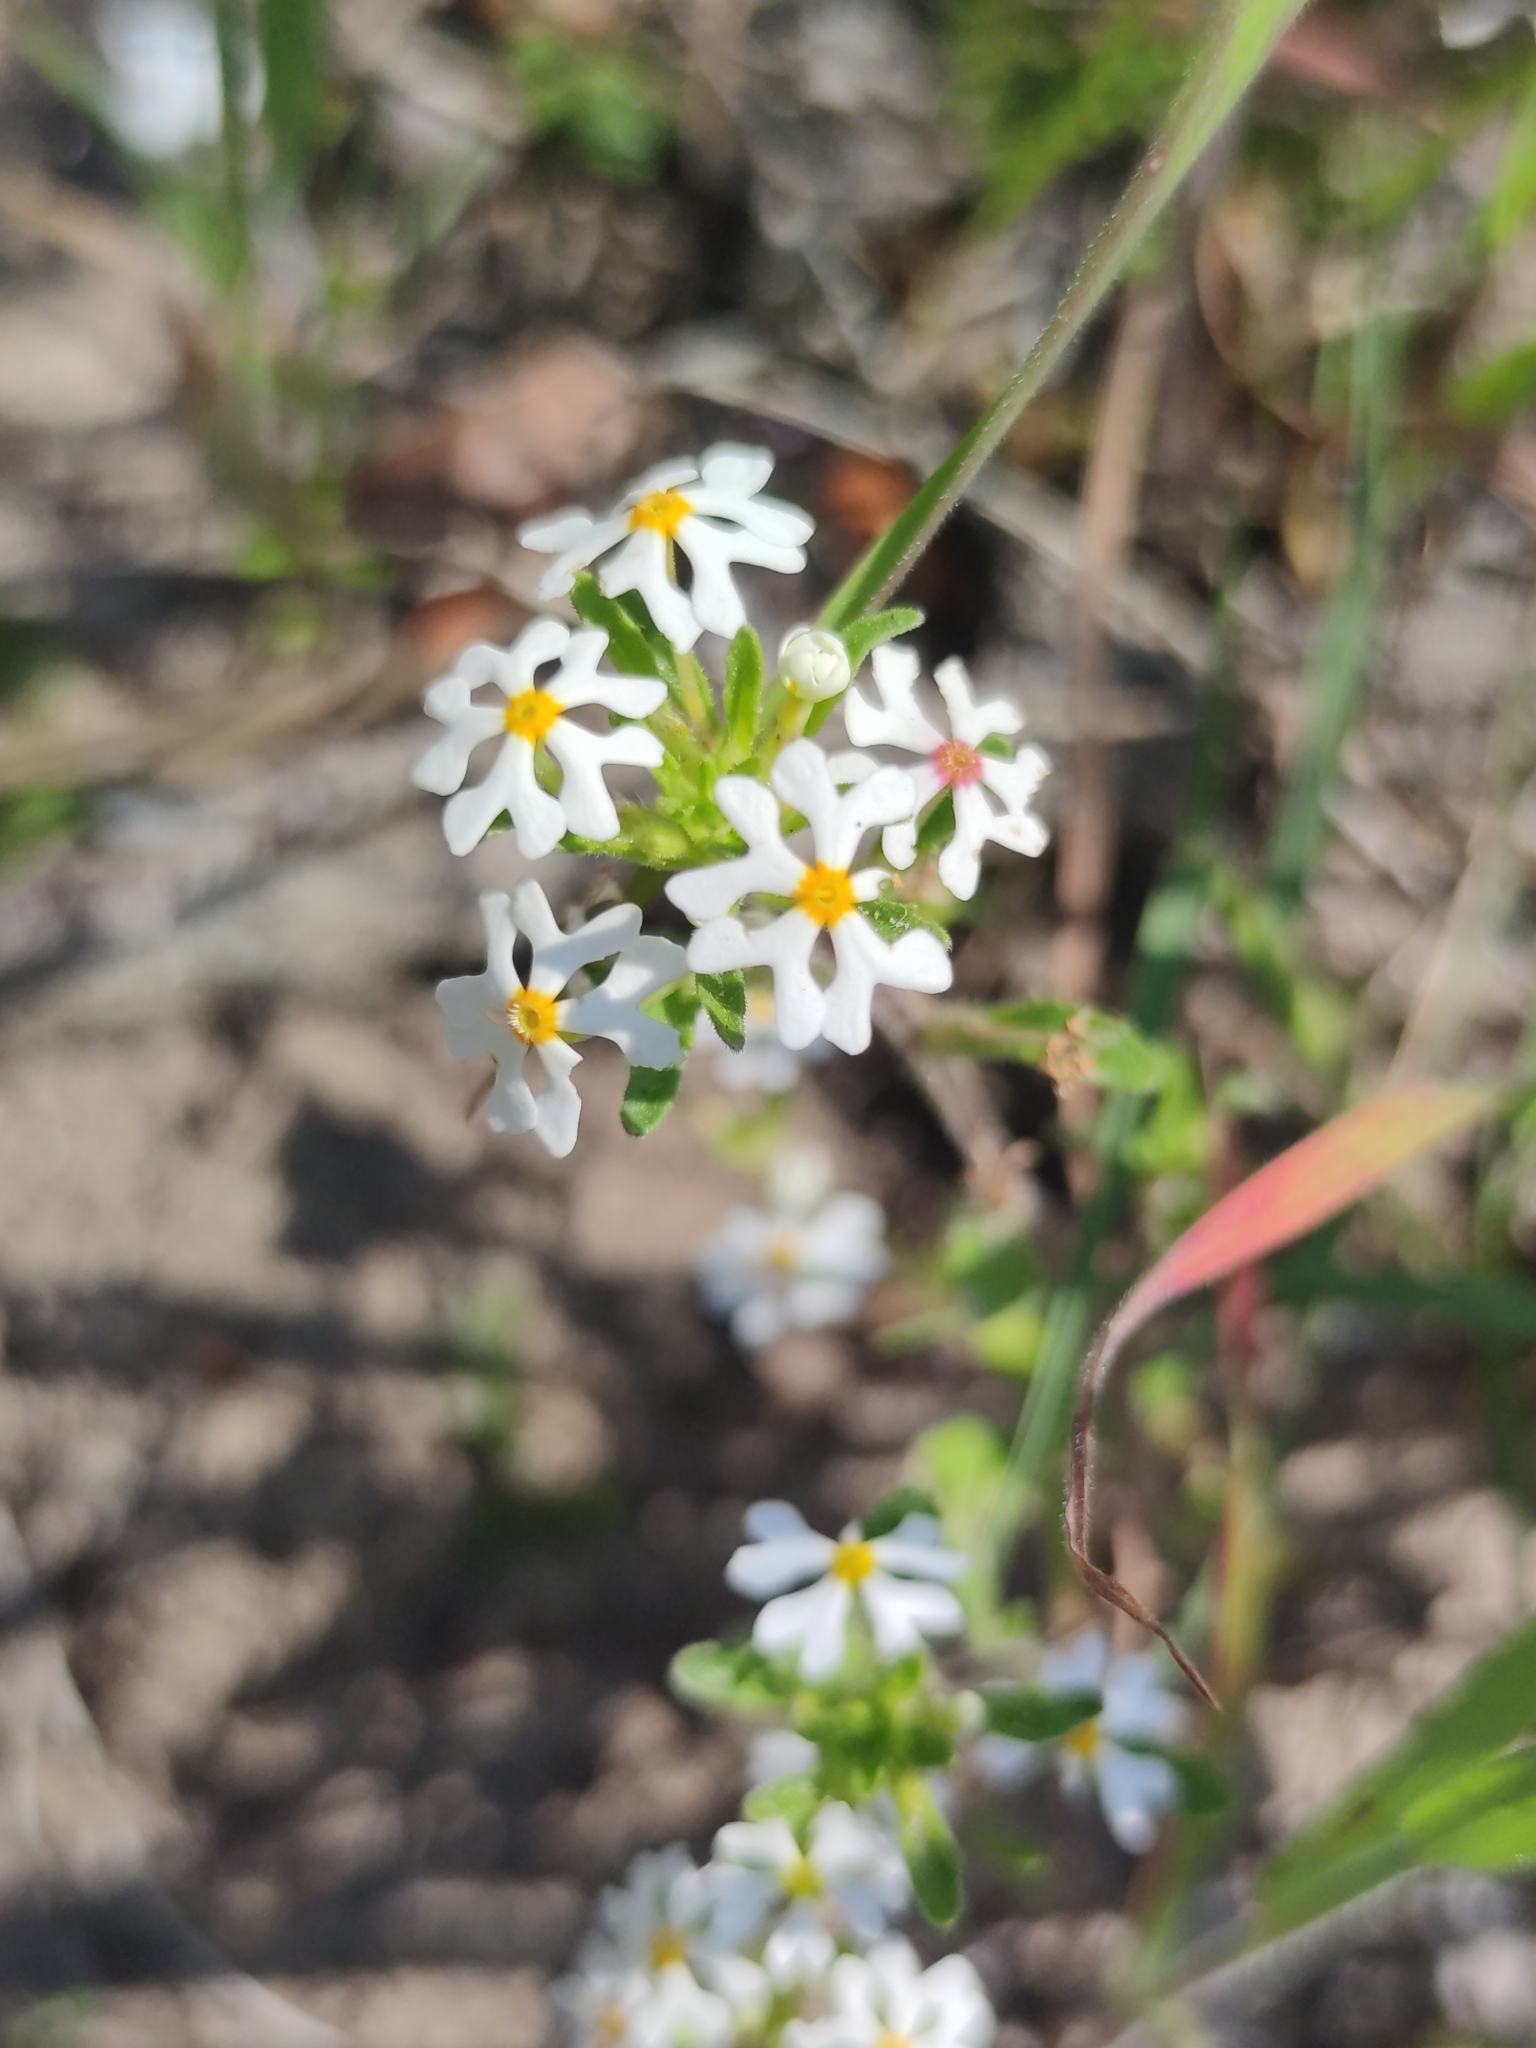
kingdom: Plantae
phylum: Tracheophyta
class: Magnoliopsida
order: Lamiales
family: Scrophulariaceae
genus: Zaluzianskya
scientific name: Zaluzianskya villosa
